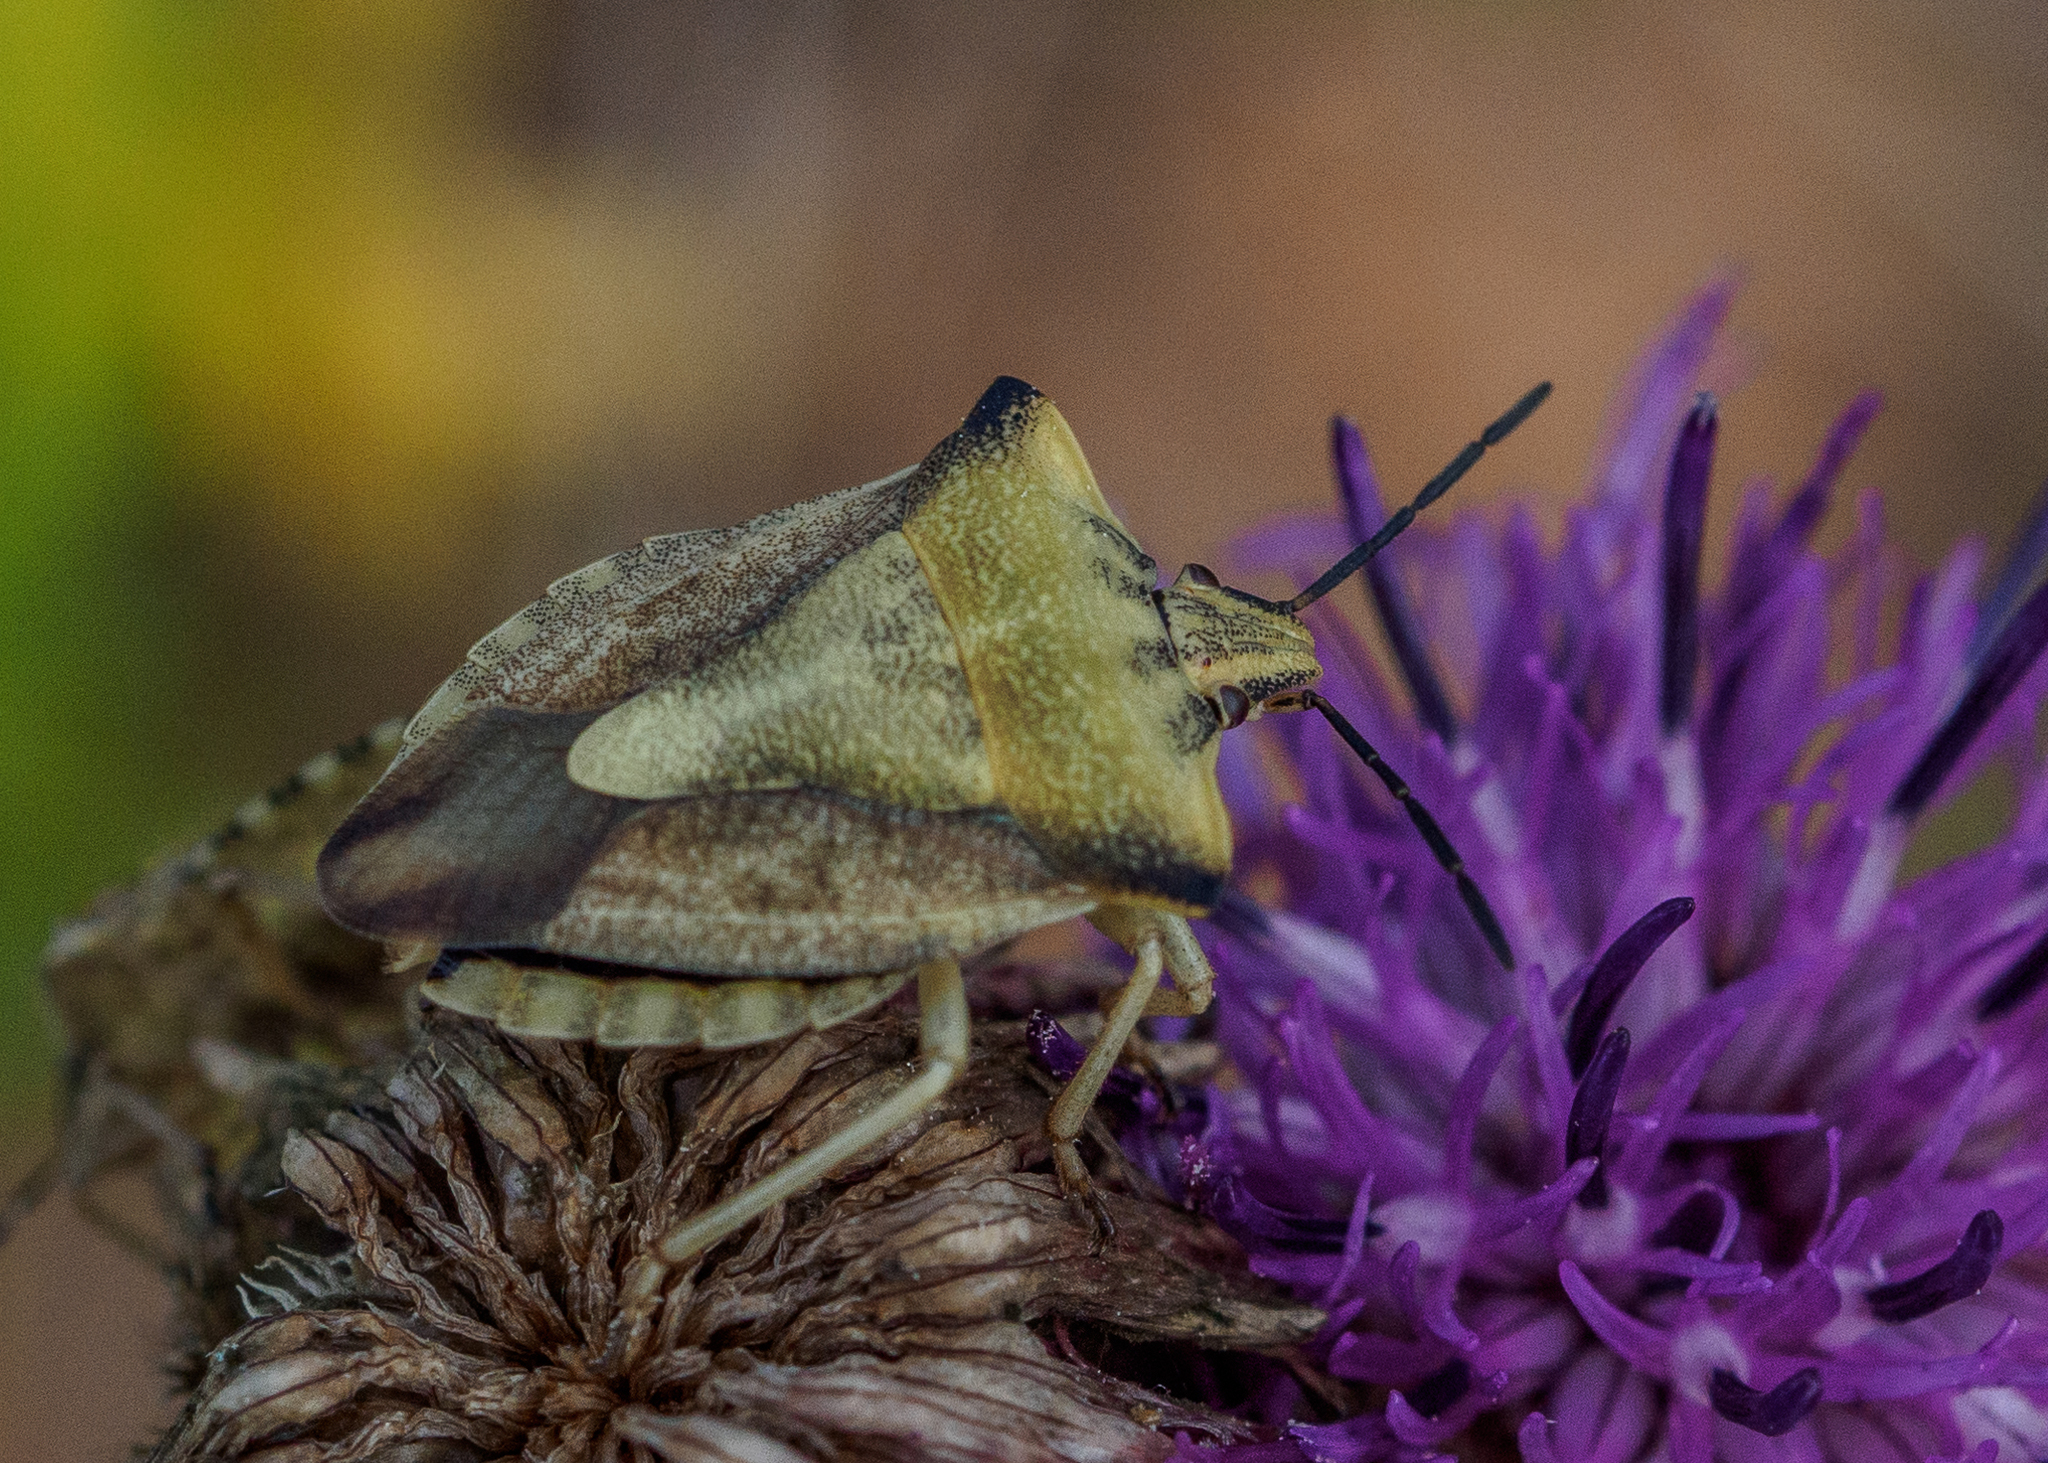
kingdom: Animalia
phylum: Arthropoda
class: Insecta
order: Hemiptera
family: Pentatomidae
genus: Carpocoris
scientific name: Carpocoris fuscispinus
